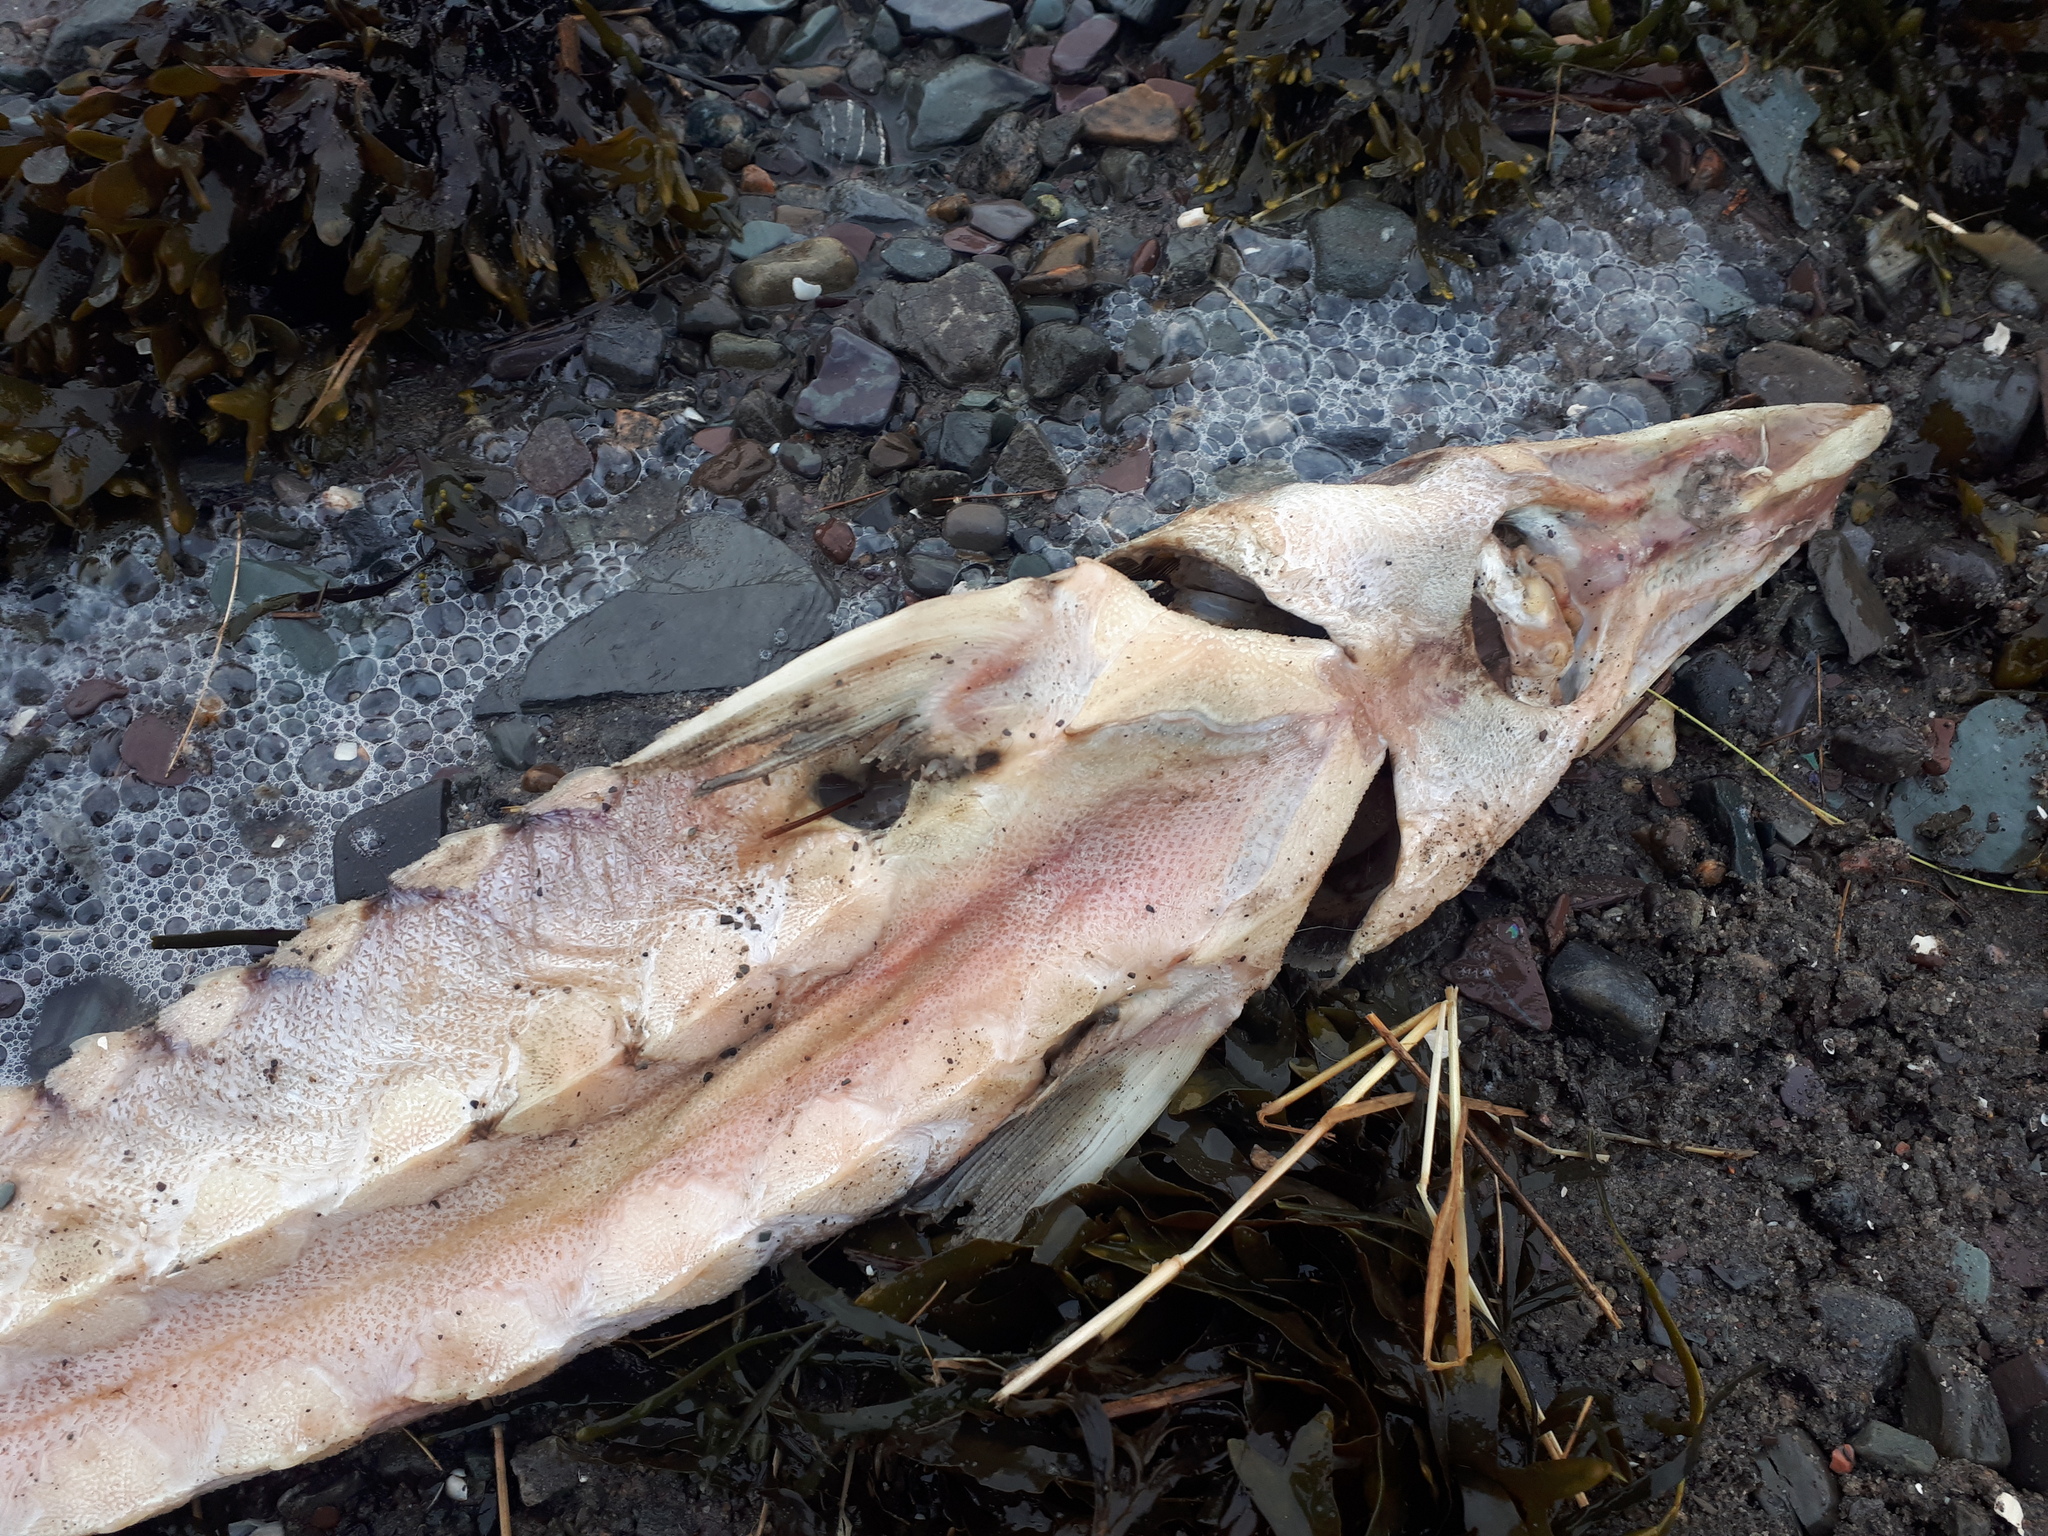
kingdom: Animalia
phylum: Chordata
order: Acipenseriformes
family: Acipenseridae
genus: Acipenser
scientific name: Acipenser oxyrinchus
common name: Atlantic sturgeon
